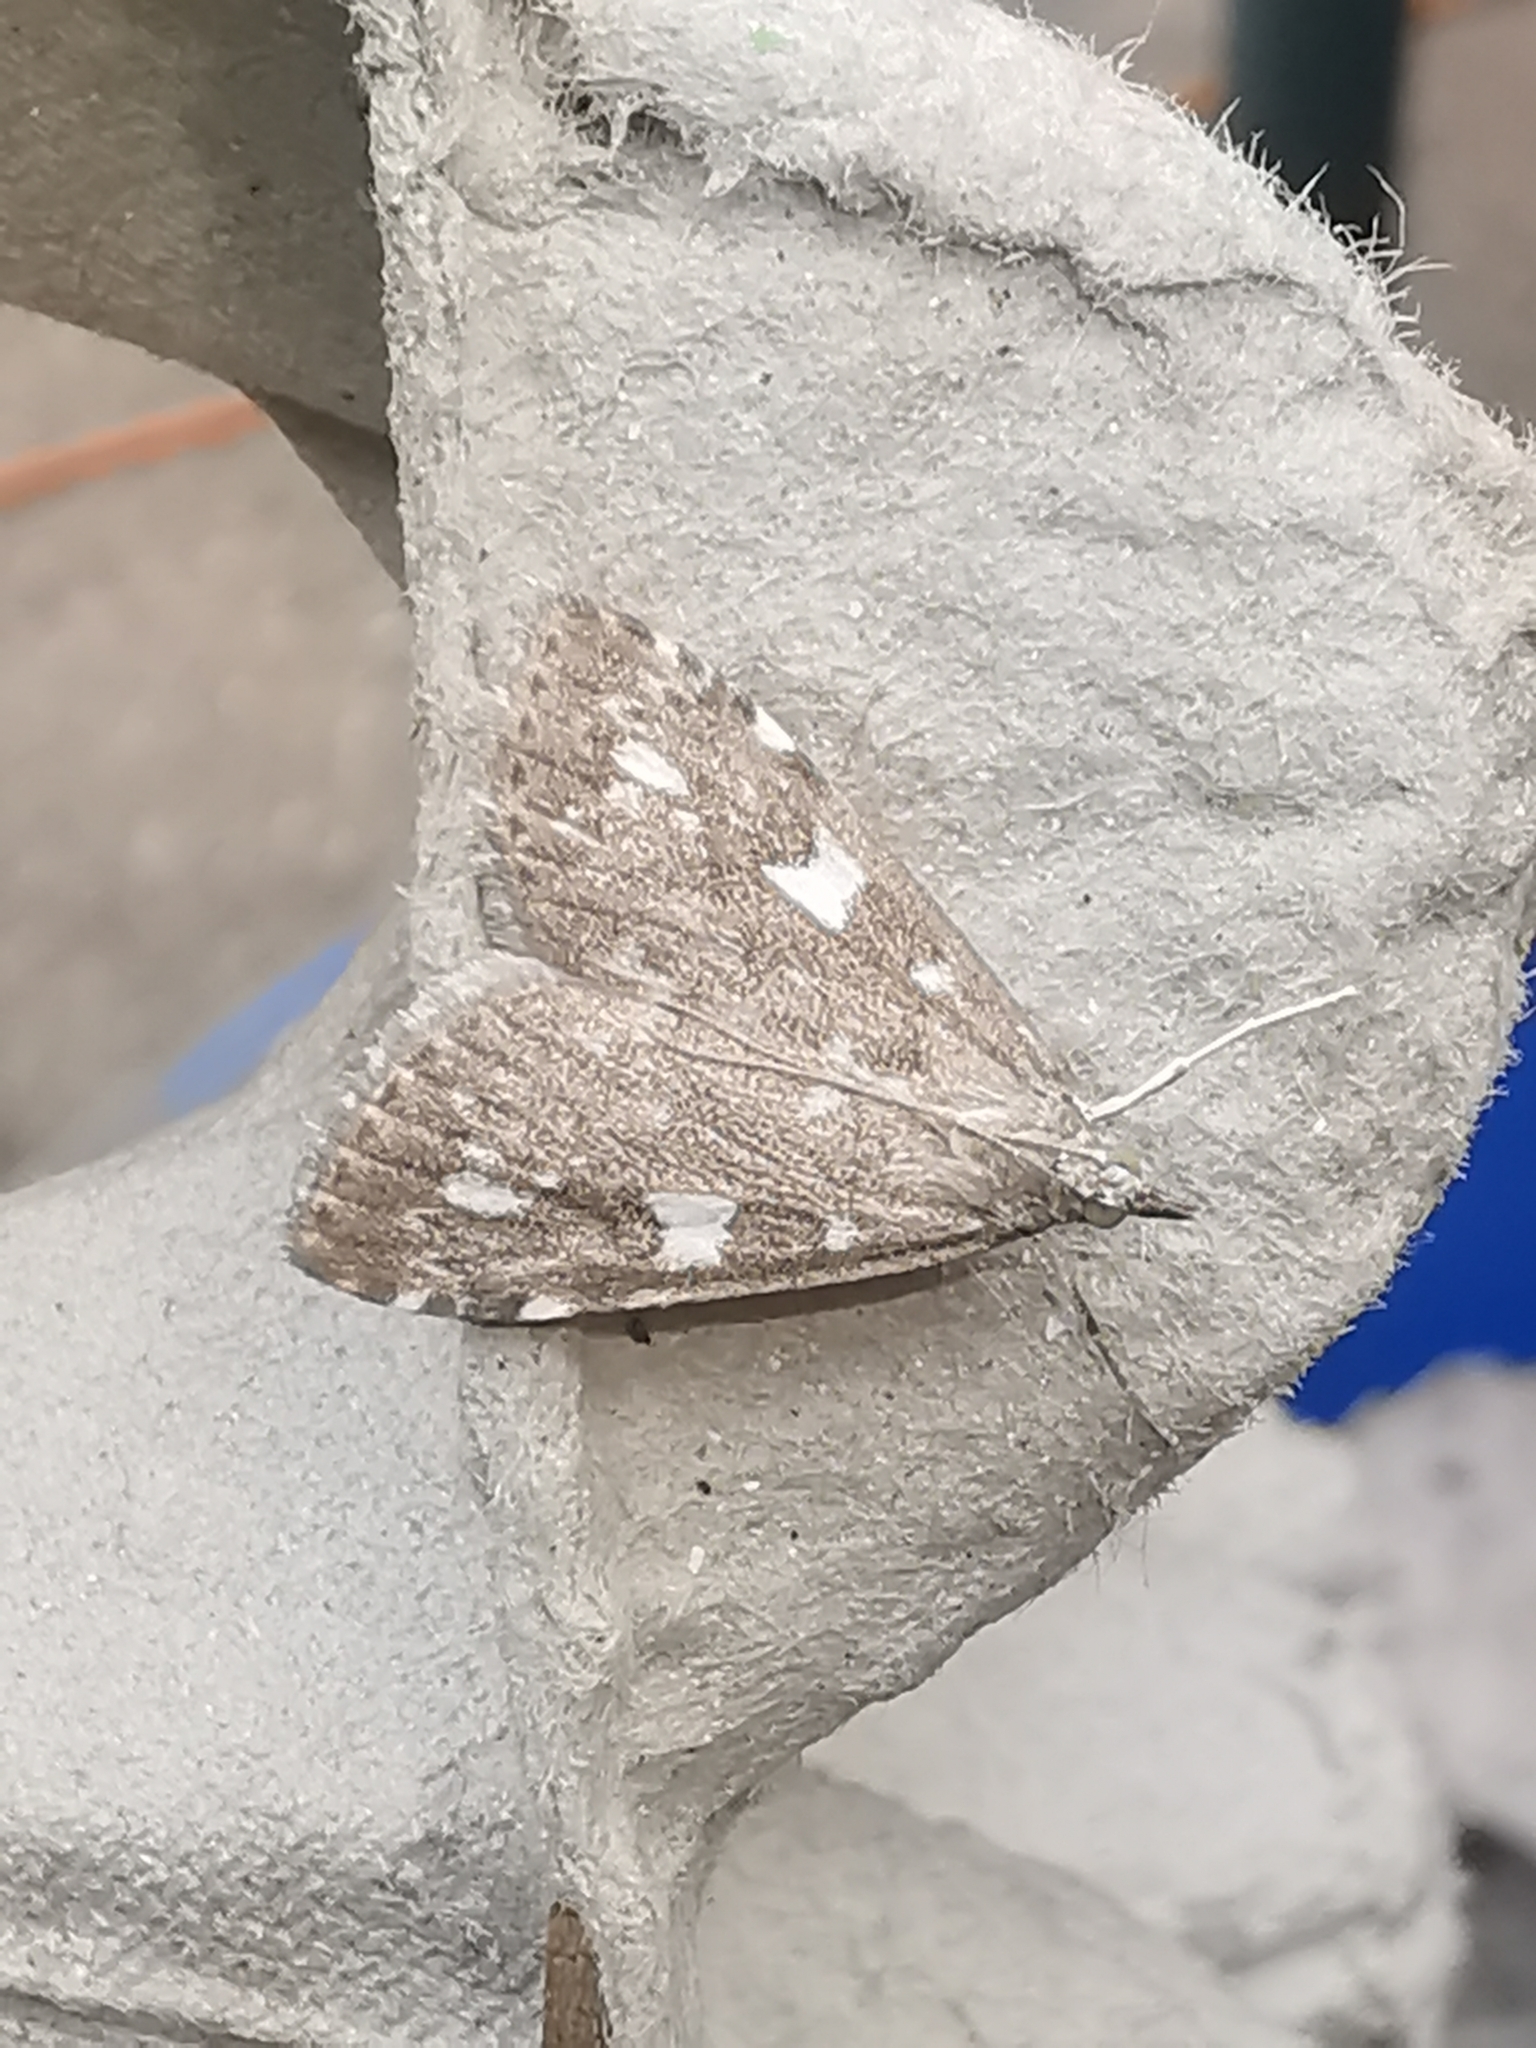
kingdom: Animalia
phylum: Arthropoda
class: Insecta
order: Lepidoptera
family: Crambidae
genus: Udea
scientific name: Udea olivalis
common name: Olive pearl
